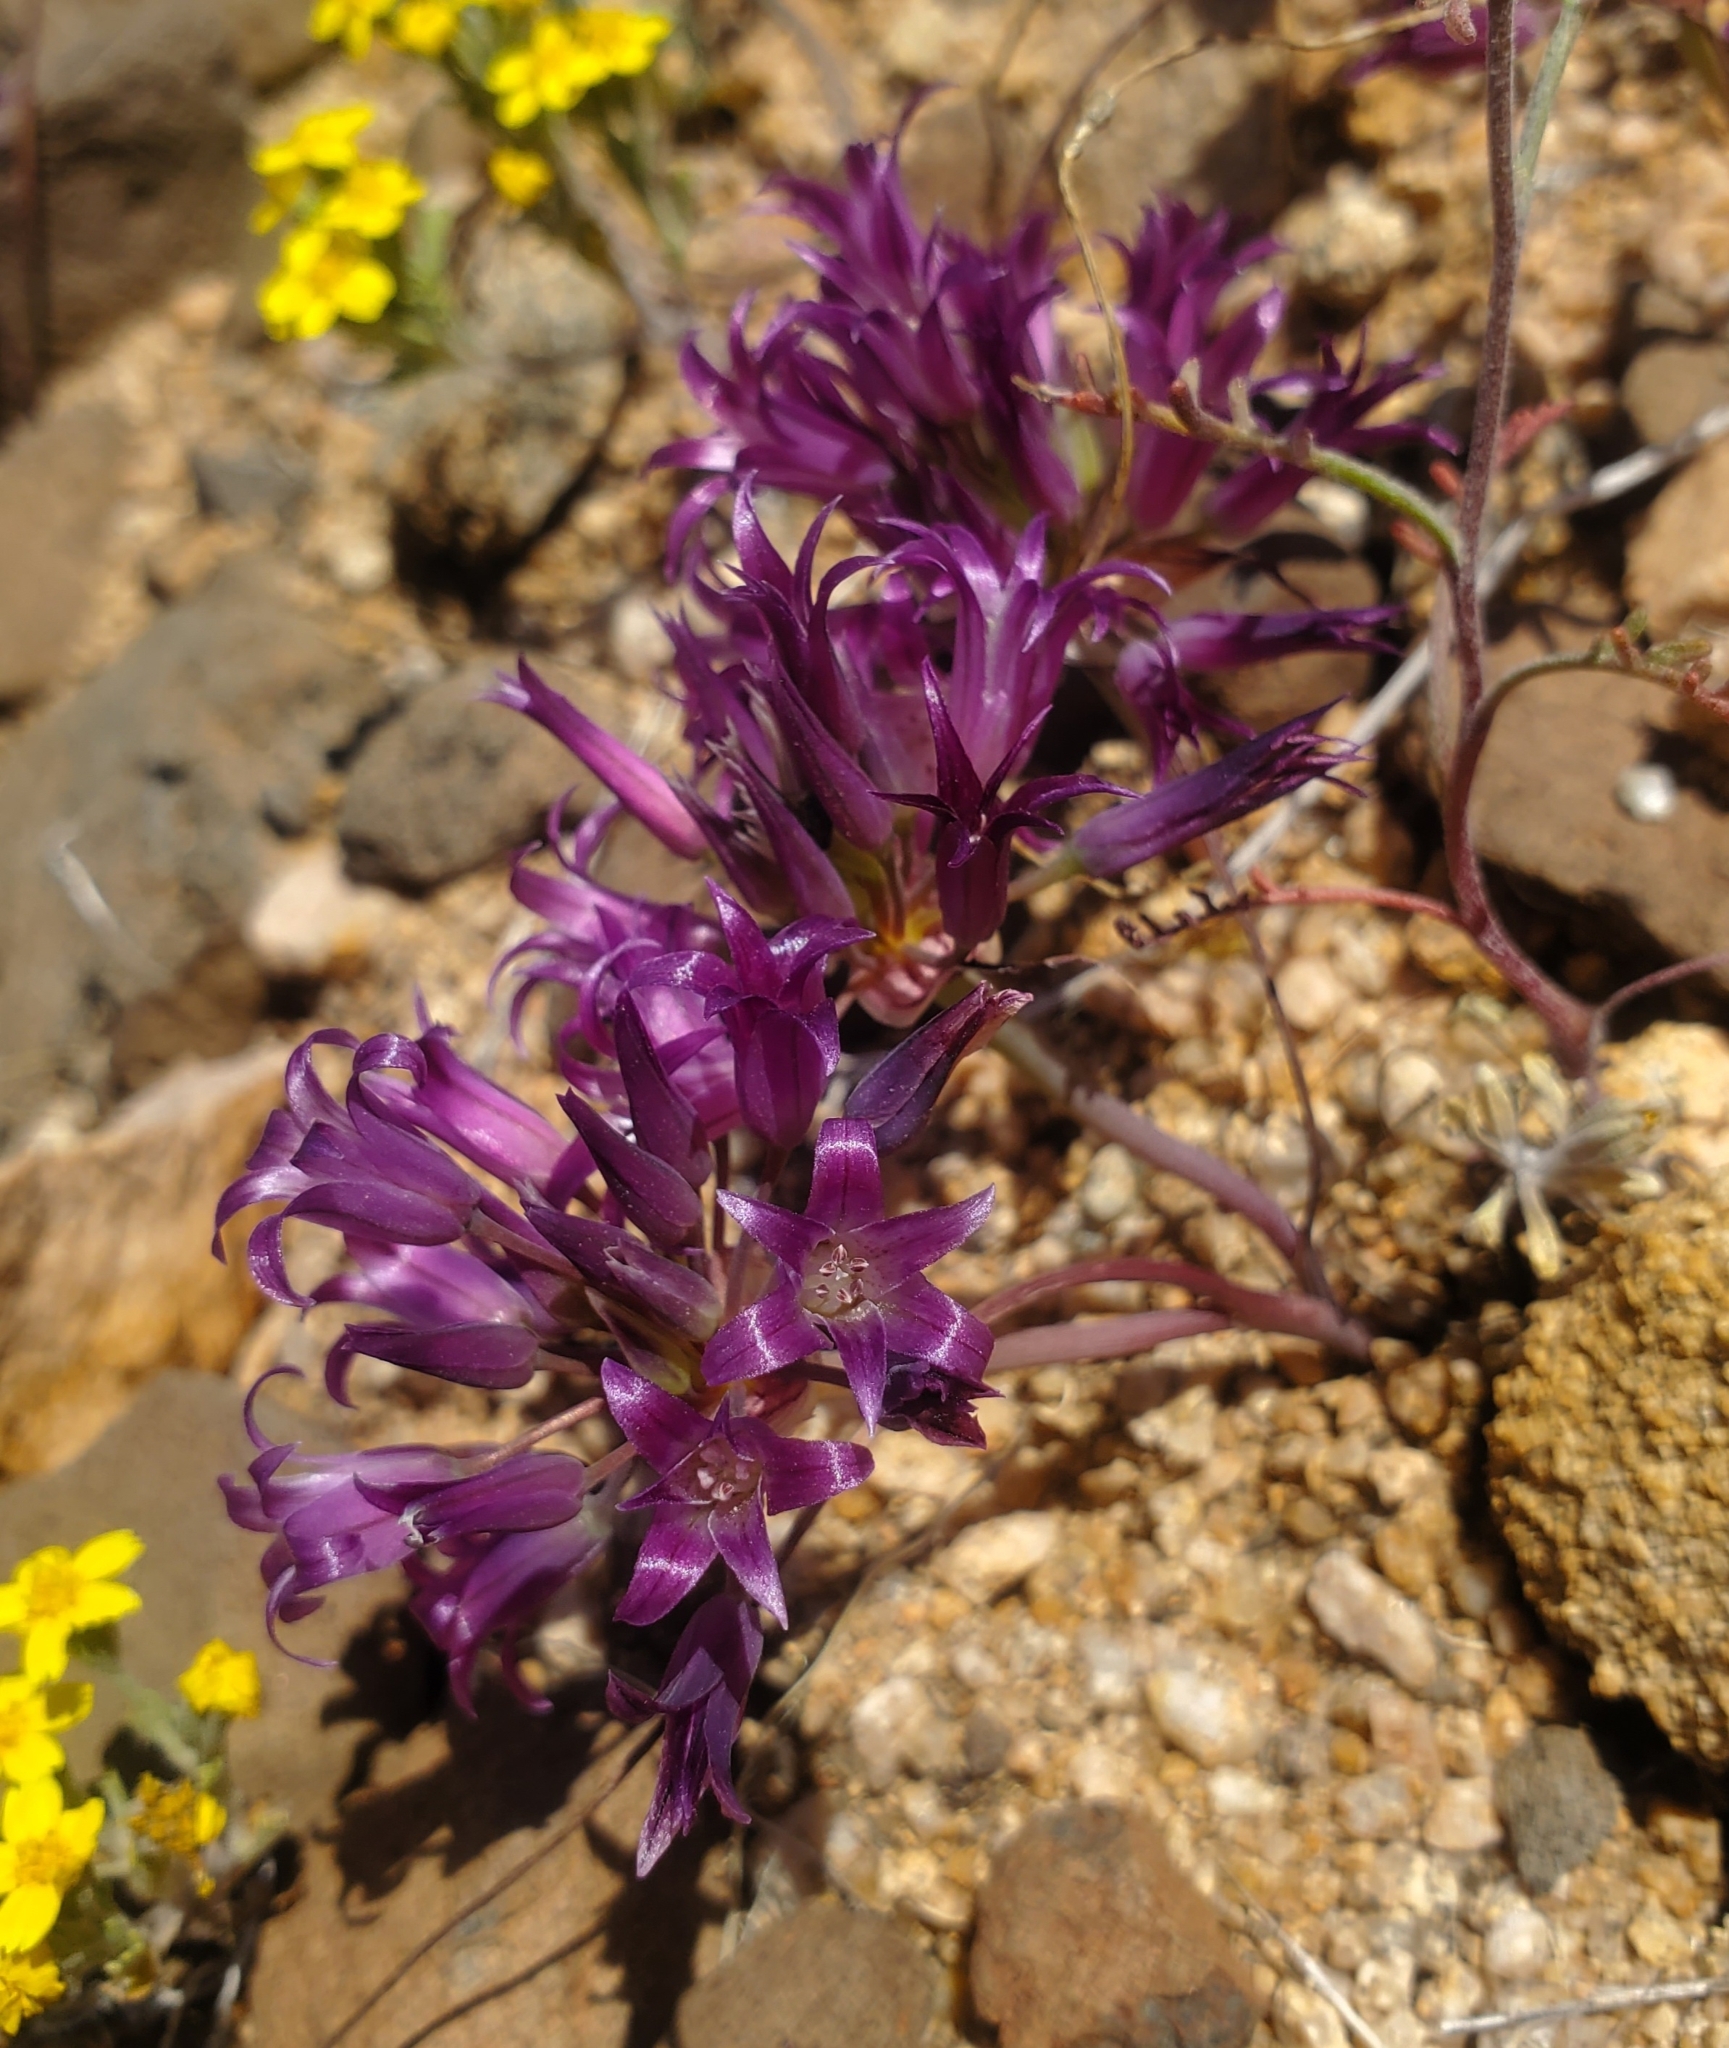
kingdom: Plantae
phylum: Tracheophyta
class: Liliopsida
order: Asparagales
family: Amaryllidaceae
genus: Allium
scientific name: Allium fimbriatum
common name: Fringed onion
